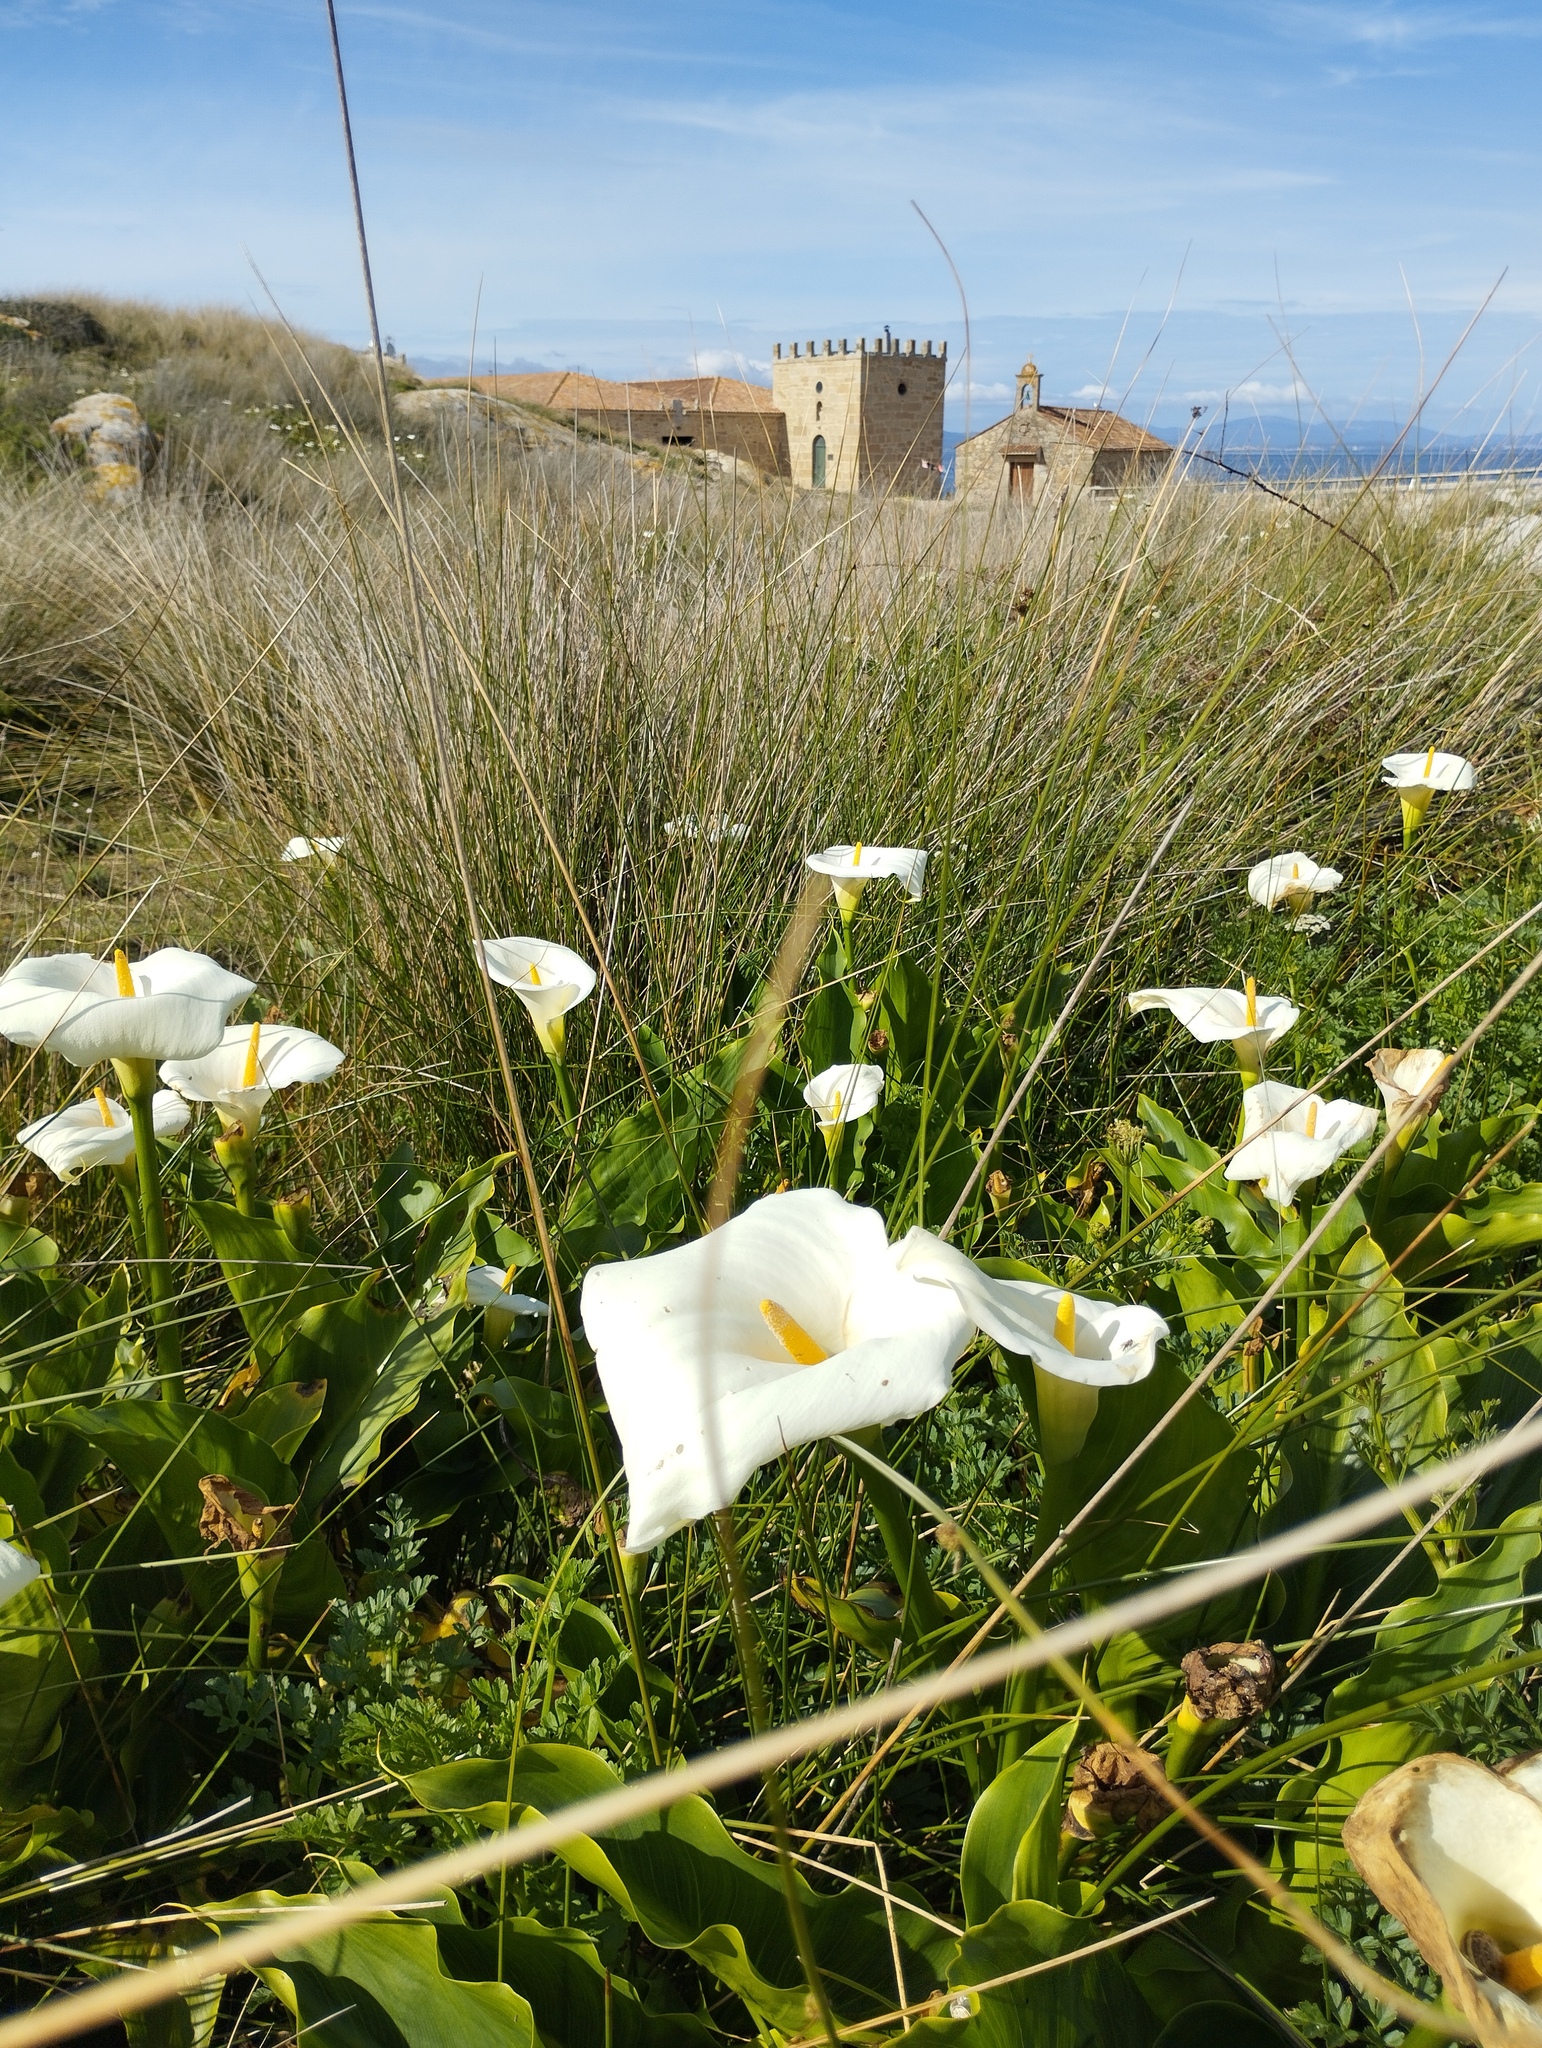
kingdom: Plantae
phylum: Tracheophyta
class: Liliopsida
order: Alismatales
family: Araceae
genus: Zantedeschia
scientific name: Zantedeschia aethiopica
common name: Altar-lily
